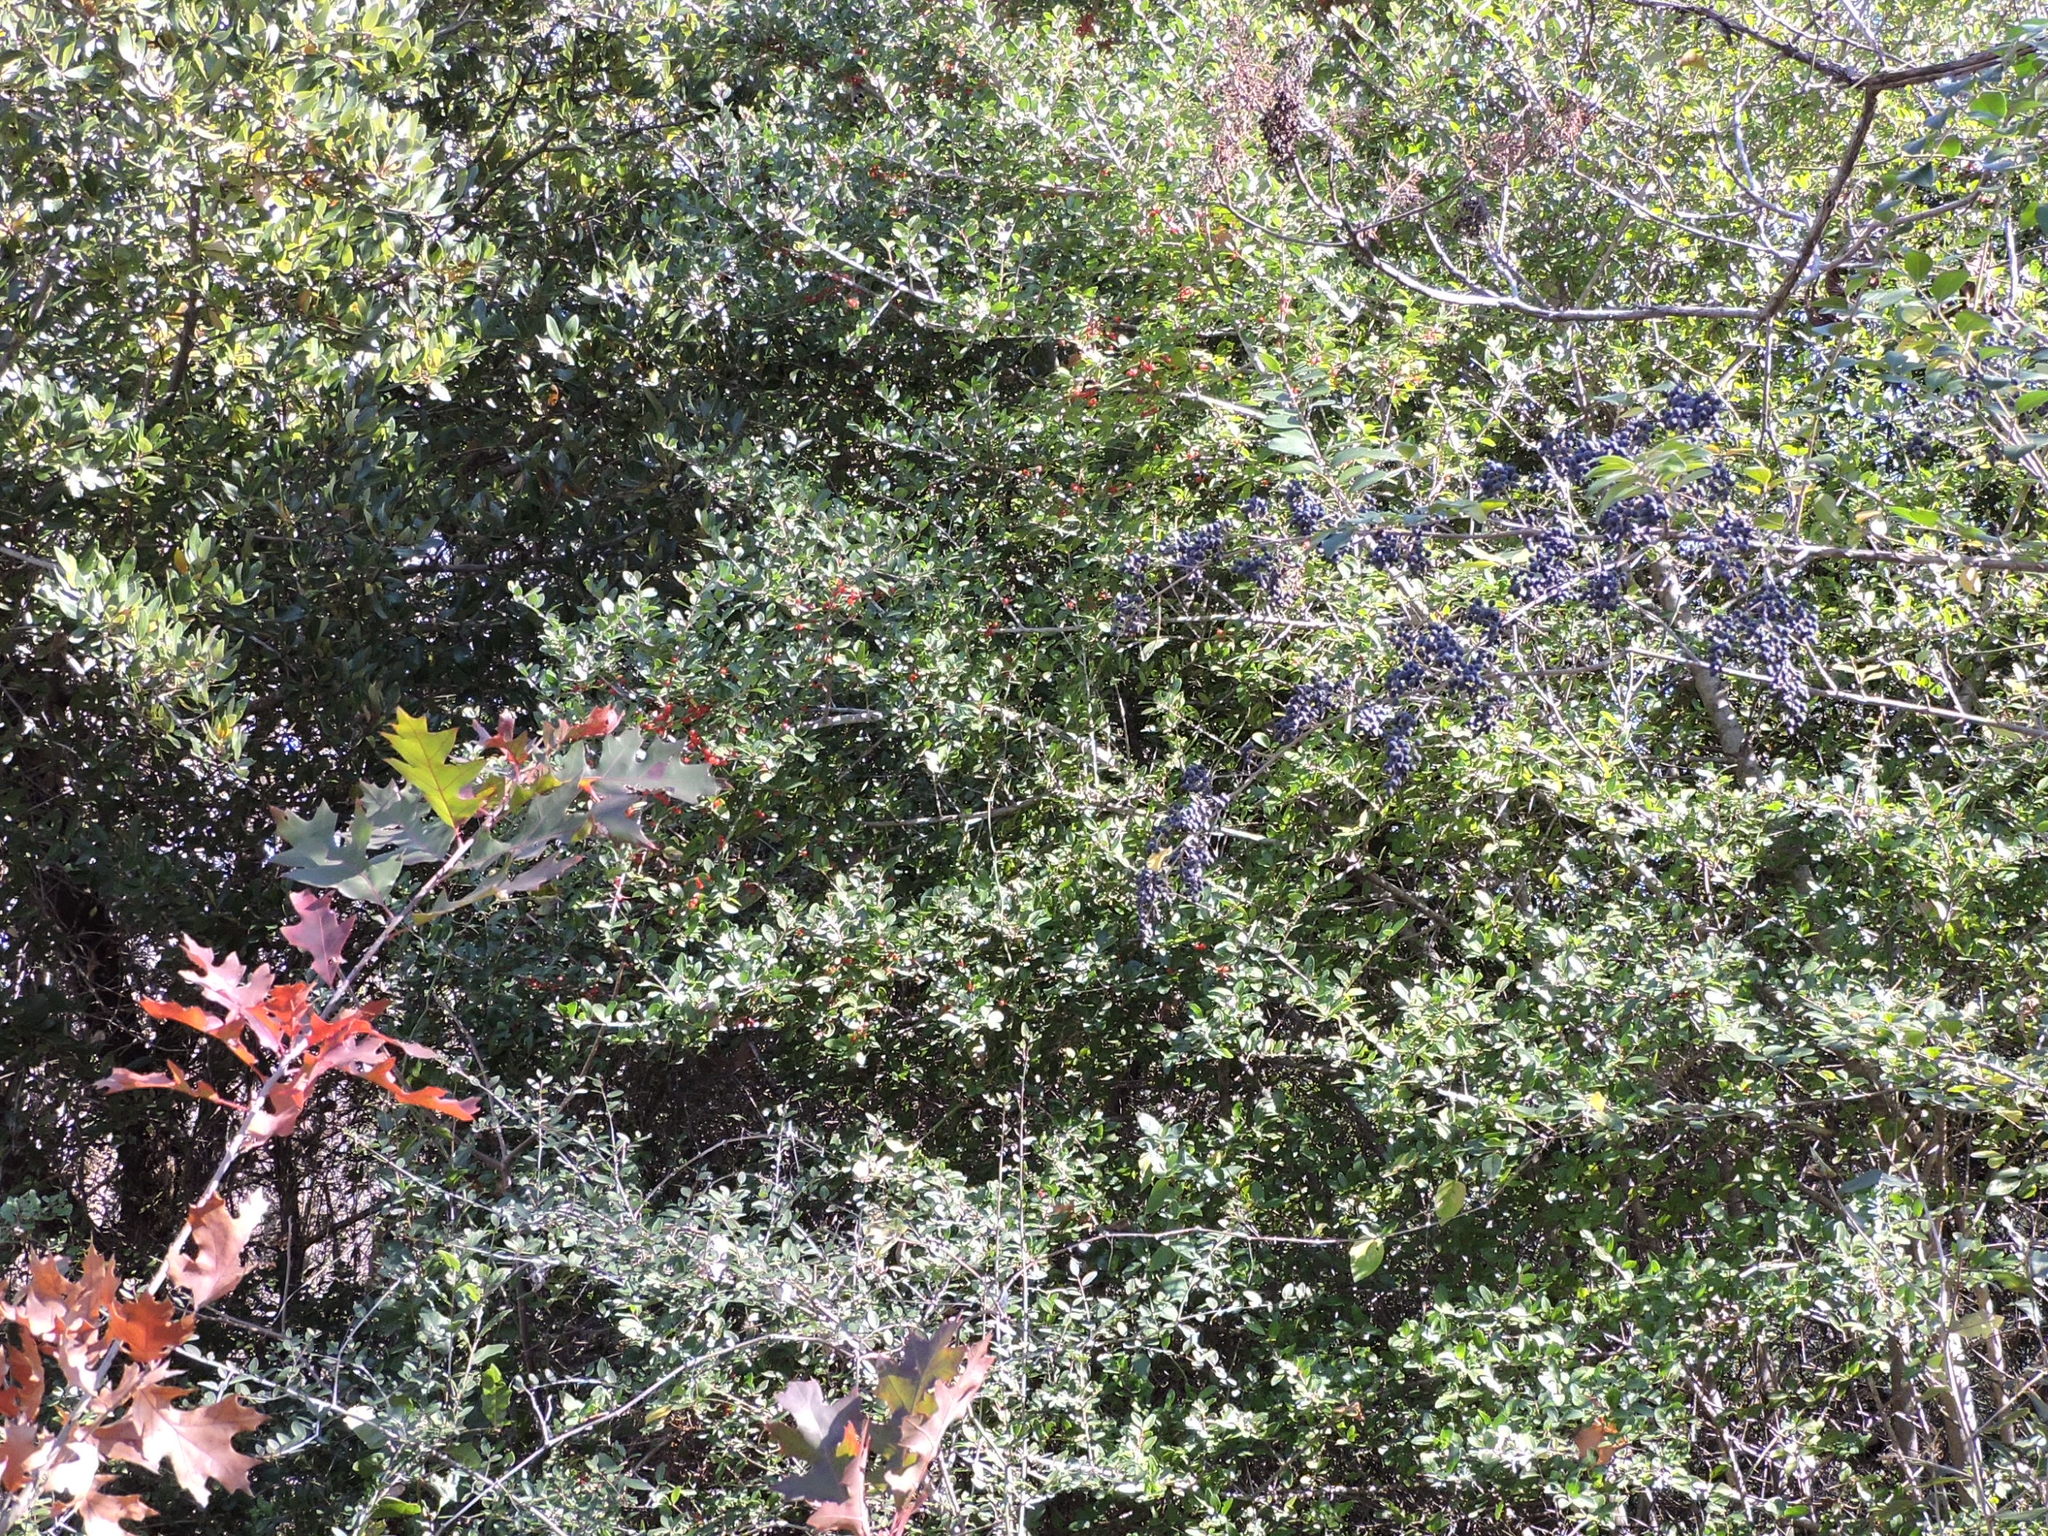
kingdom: Plantae
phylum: Tracheophyta
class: Magnoliopsida
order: Aquifoliales
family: Aquifoliaceae
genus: Ilex
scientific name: Ilex vomitoria
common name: Yaupon holly
